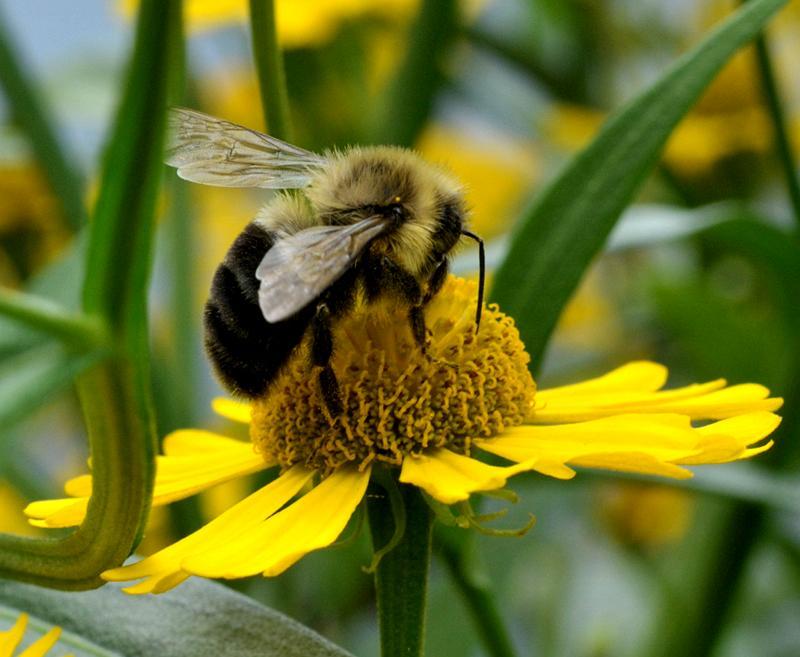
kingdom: Animalia
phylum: Arthropoda
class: Insecta
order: Hymenoptera
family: Apidae
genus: Bombus
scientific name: Bombus impatiens
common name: Common eastern bumble bee
